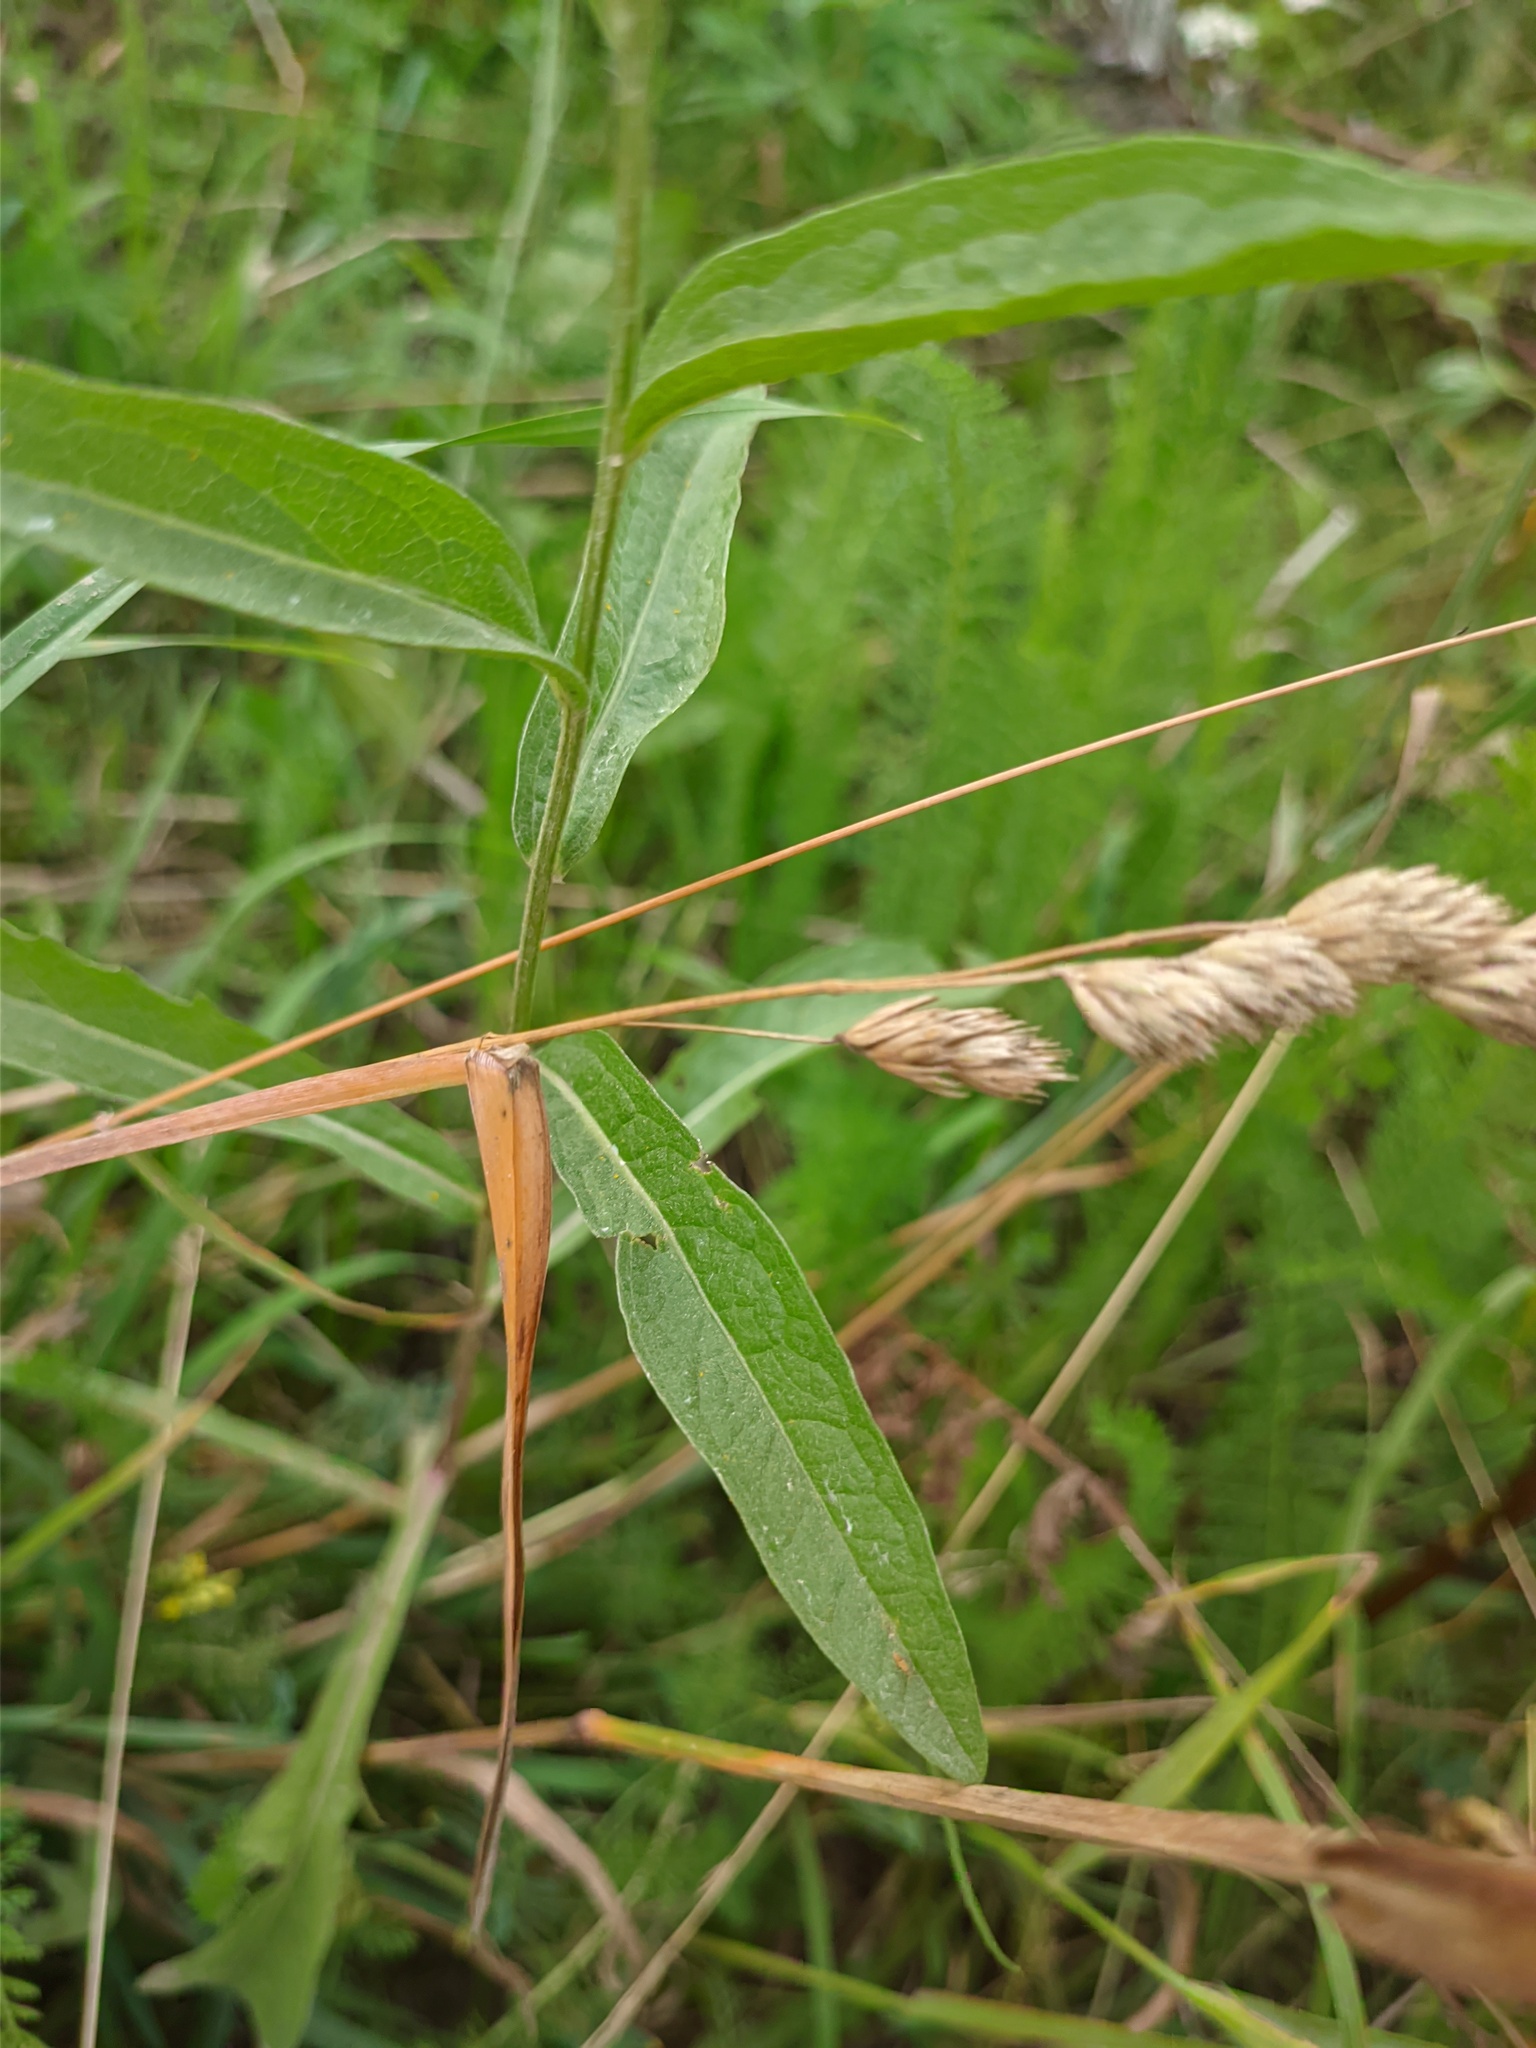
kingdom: Plantae
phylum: Tracheophyta
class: Magnoliopsida
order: Asterales
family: Asteraceae
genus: Centaurea
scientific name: Centaurea jacea
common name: Brown knapweed
